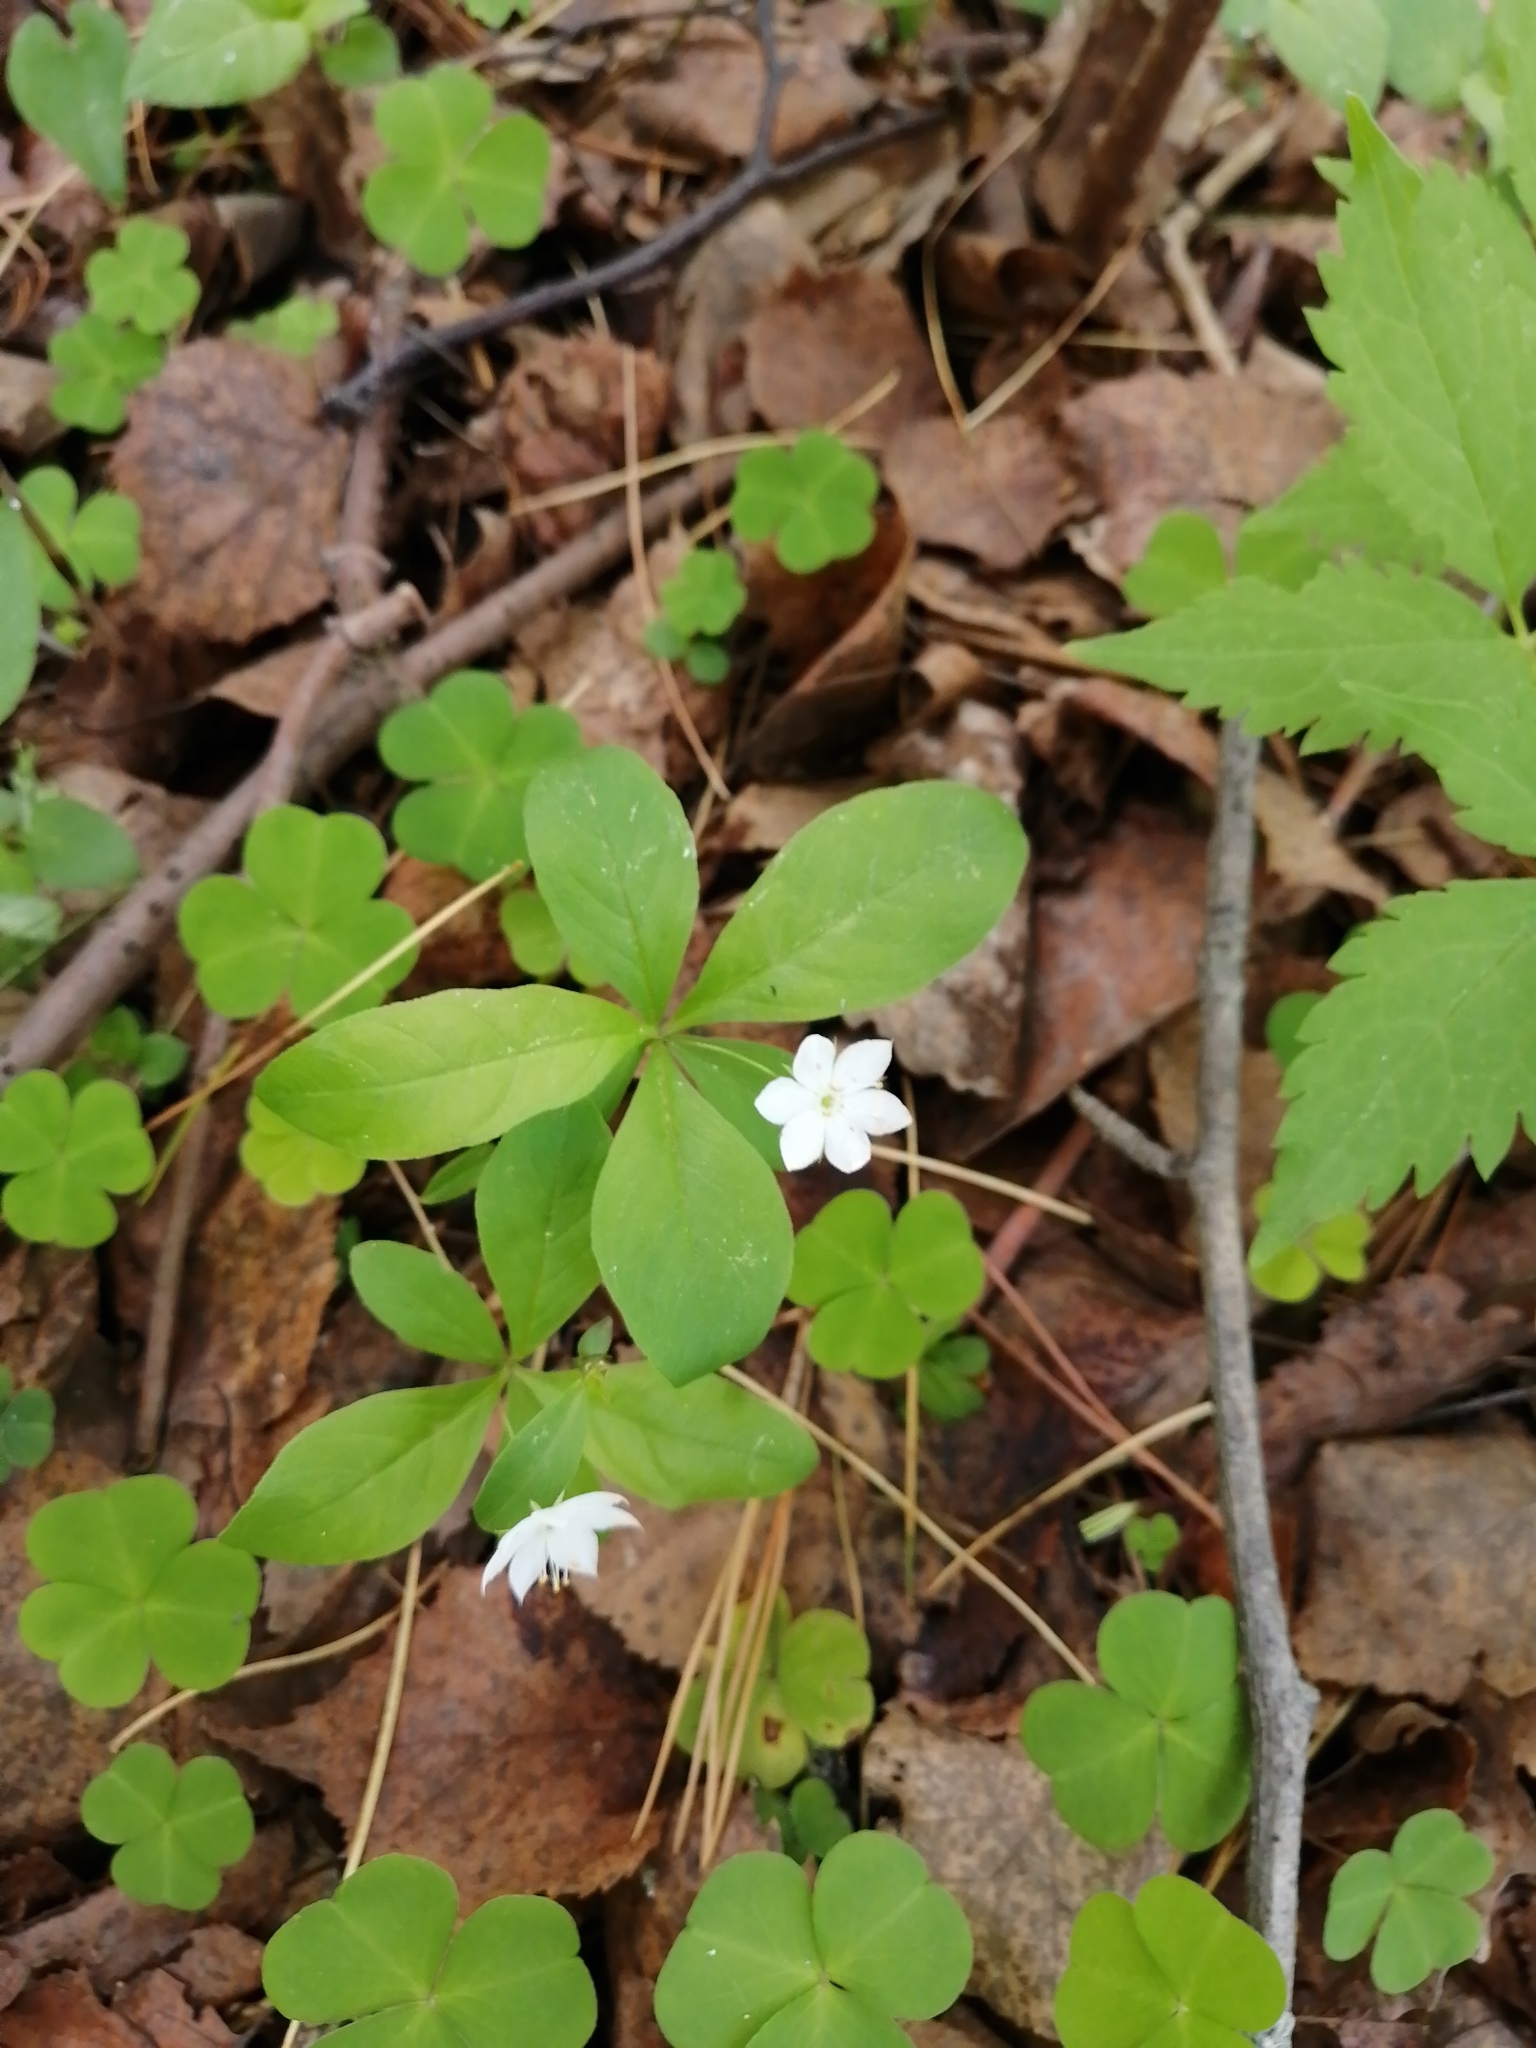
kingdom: Plantae
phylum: Tracheophyta
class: Magnoliopsida
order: Ericales
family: Primulaceae
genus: Lysimachia
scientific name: Lysimachia europaea
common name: Arctic starflower
